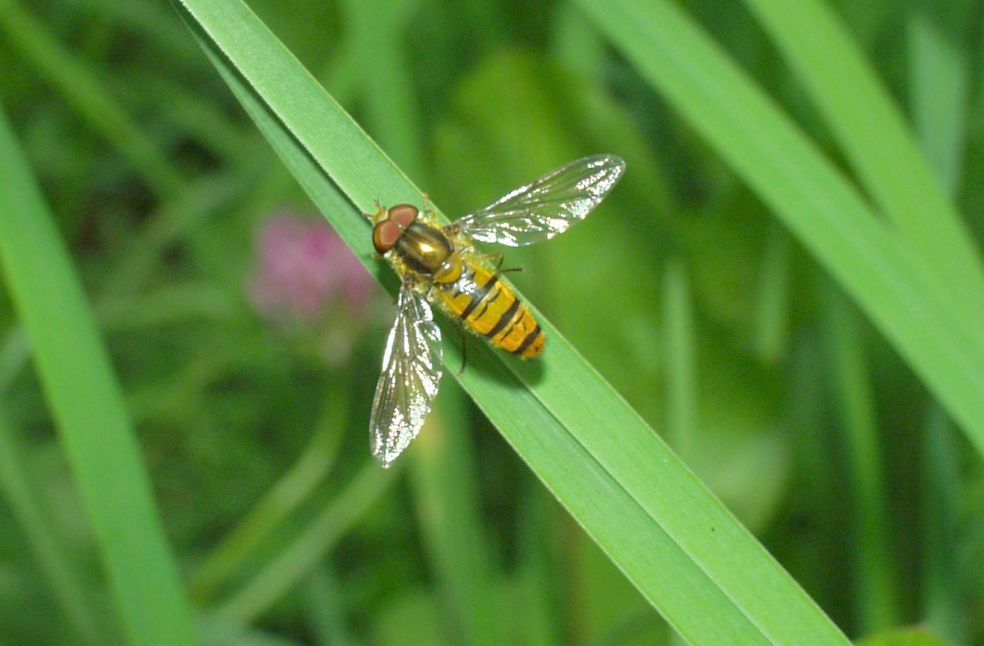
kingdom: Animalia
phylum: Arthropoda
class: Insecta
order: Diptera
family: Syrphidae
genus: Episyrphus
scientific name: Episyrphus balteatus
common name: Marmalade hoverfly
